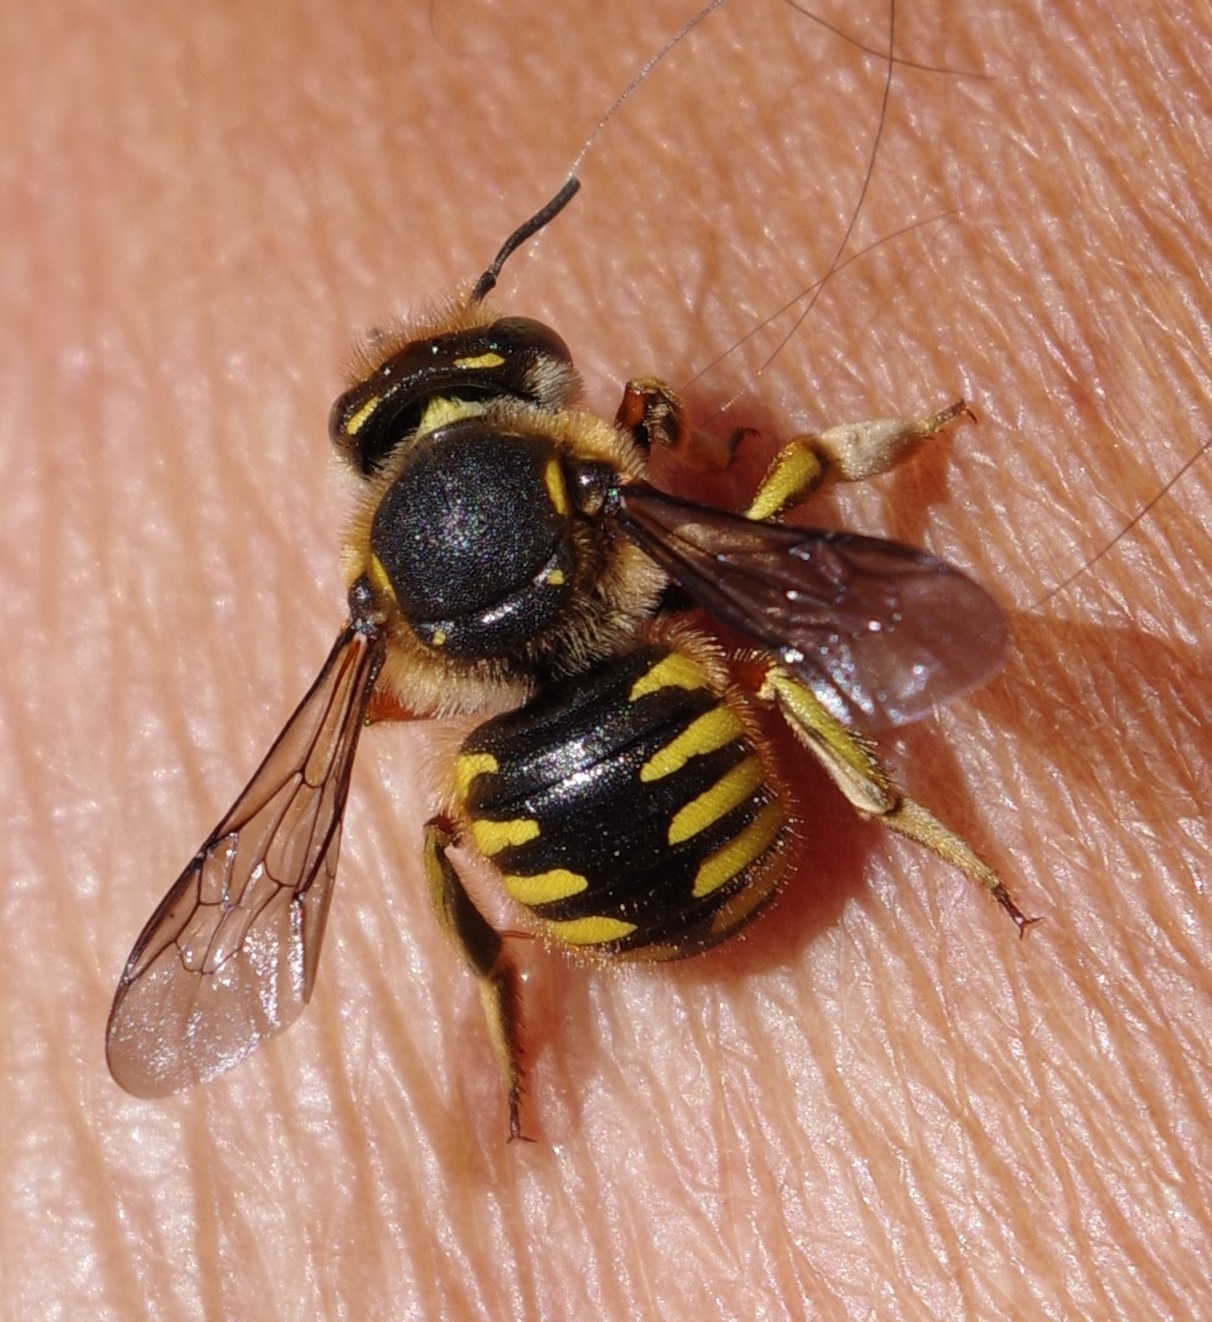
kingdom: Animalia
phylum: Arthropoda
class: Insecta
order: Hymenoptera
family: Megachilidae
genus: Anthidium
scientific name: Anthidium manicatum
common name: Wool carder bee
